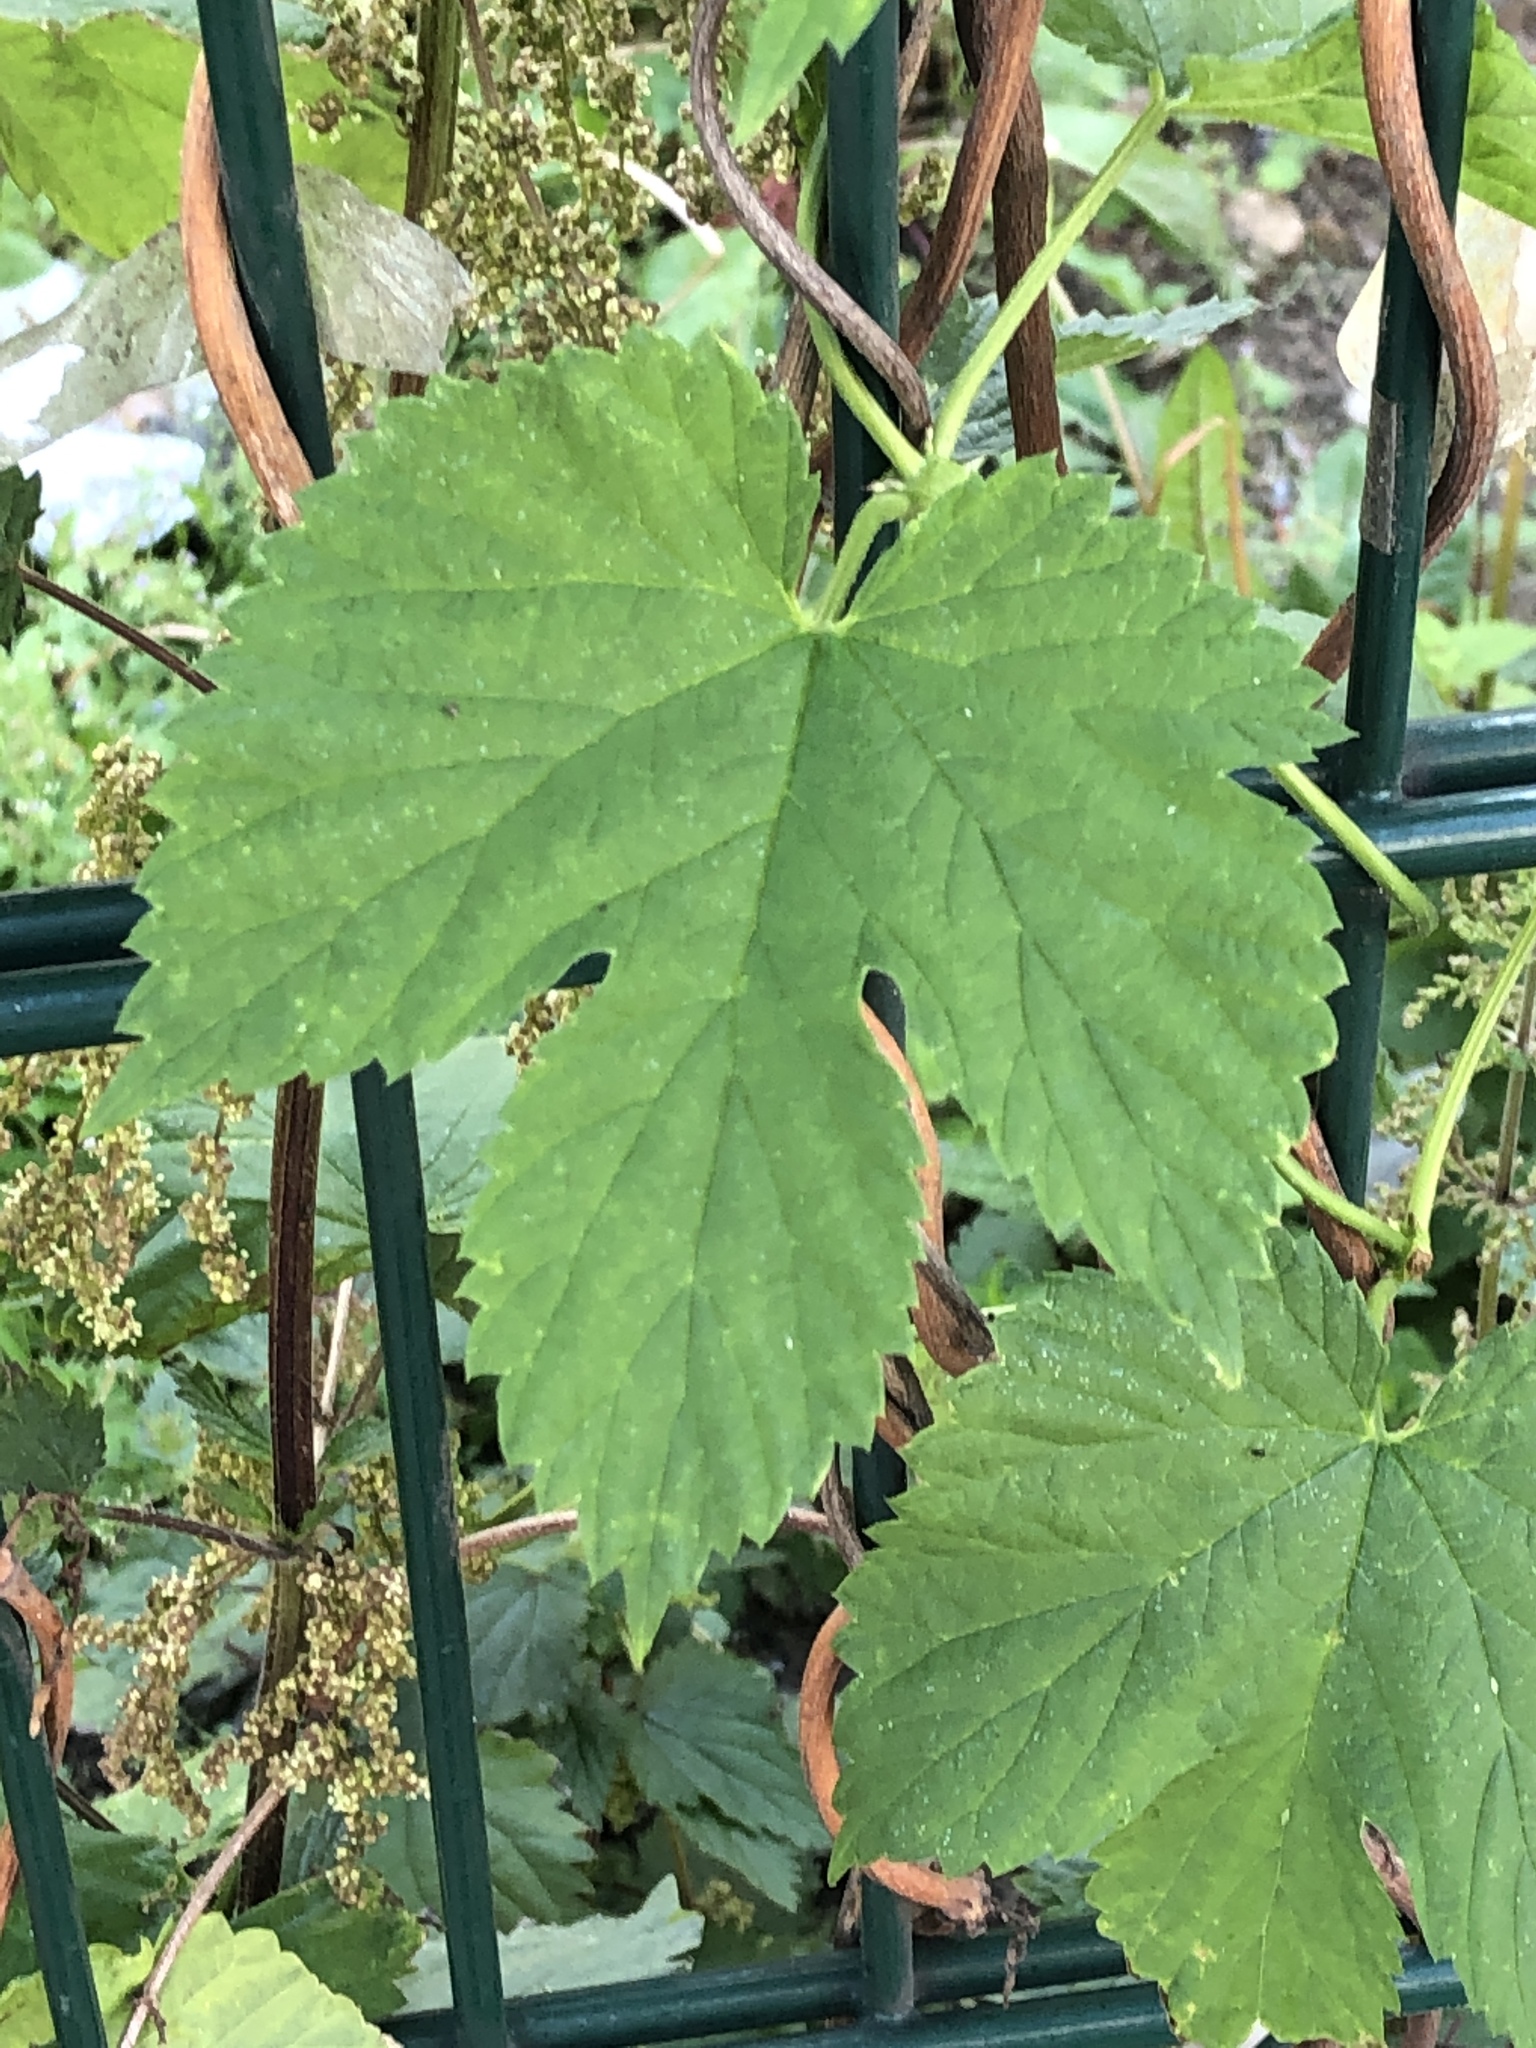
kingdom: Plantae
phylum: Tracheophyta
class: Magnoliopsida
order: Rosales
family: Cannabaceae
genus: Humulus
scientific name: Humulus lupulus
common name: Hop
